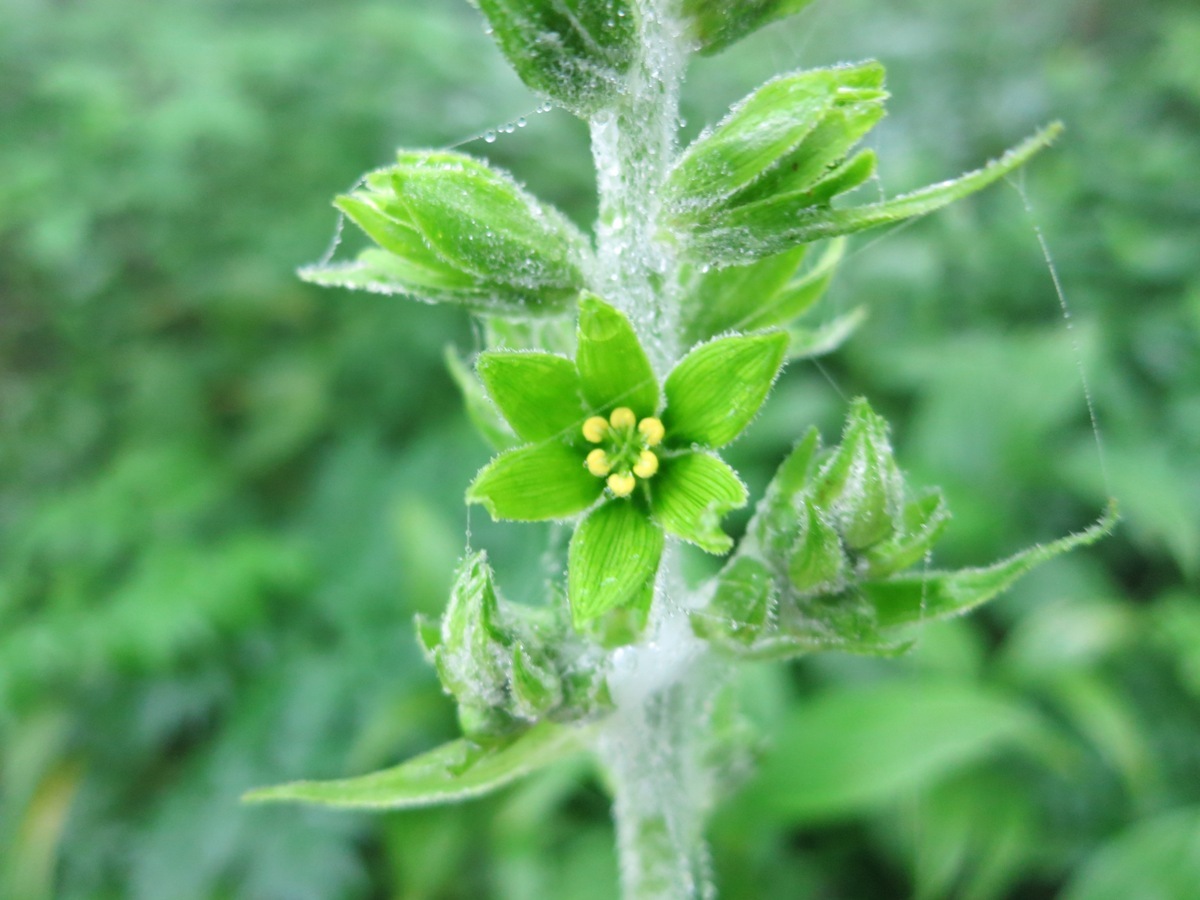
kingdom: Plantae
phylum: Tracheophyta
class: Liliopsida
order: Liliales
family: Melanthiaceae
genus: Veratrum
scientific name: Veratrum viride
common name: American false hellebore
